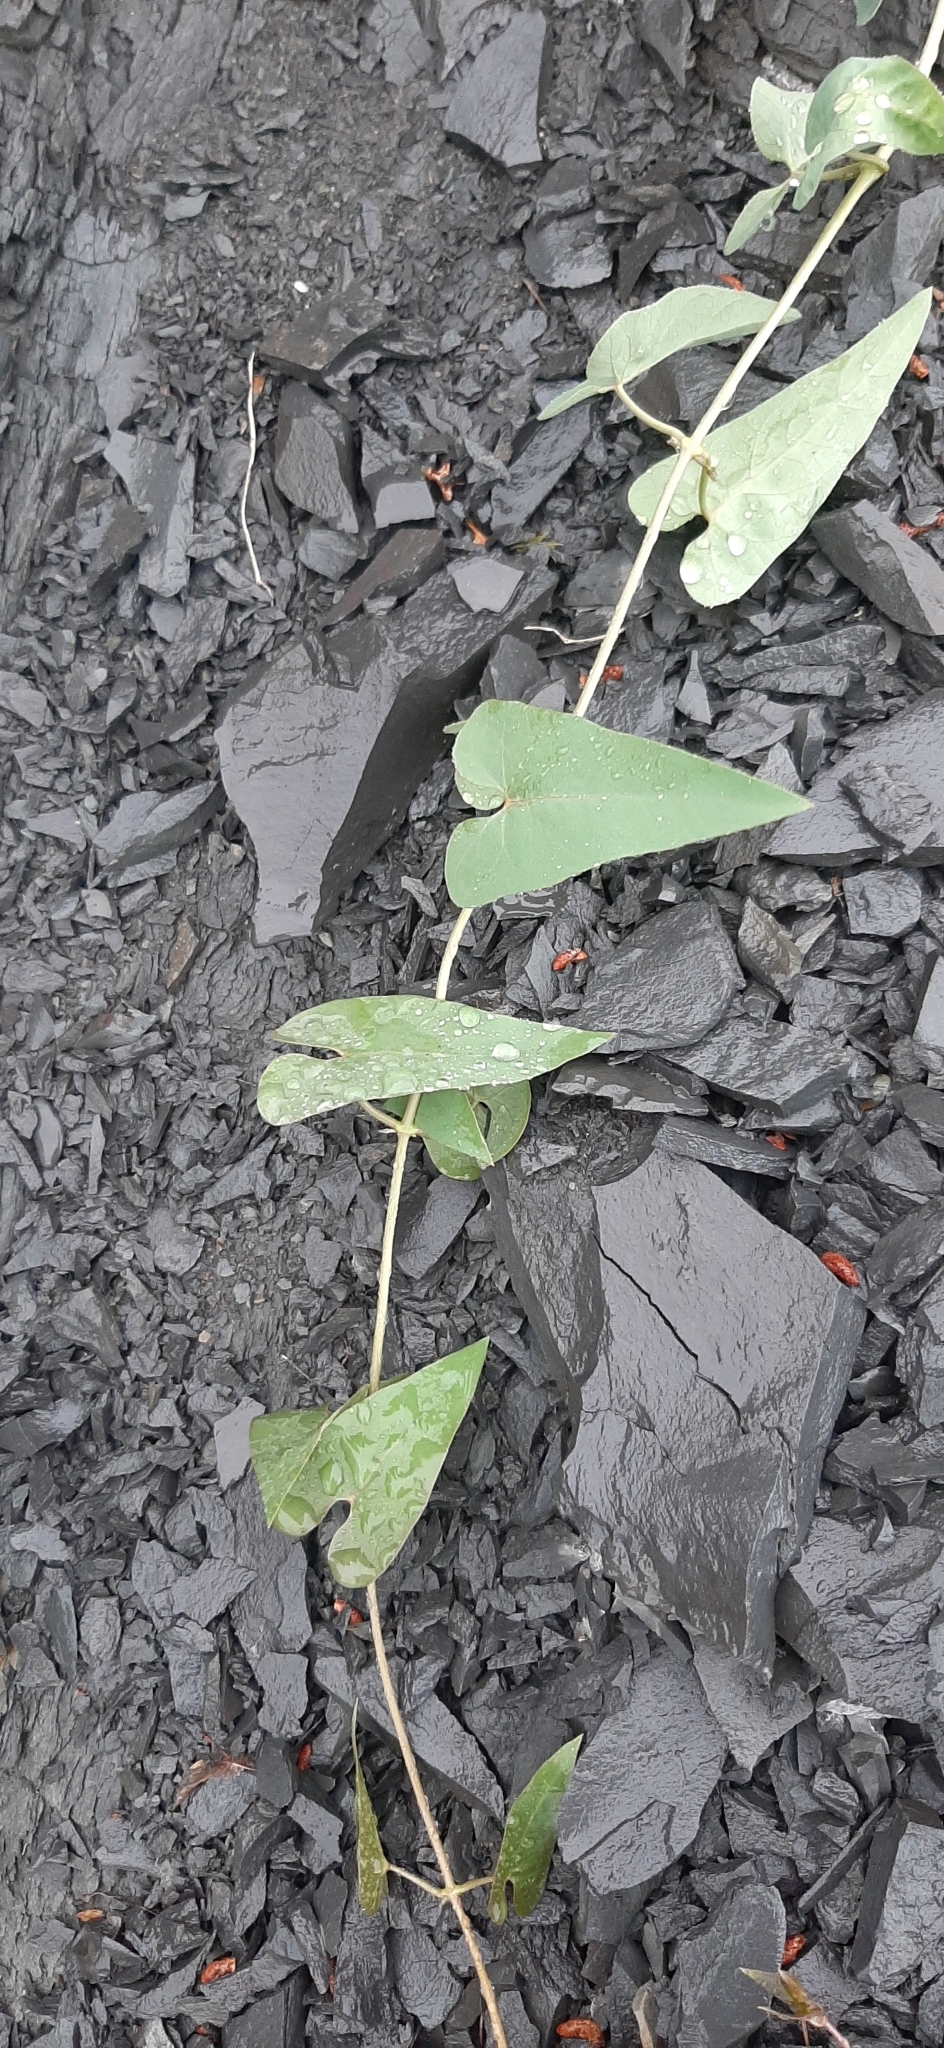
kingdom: Plantae
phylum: Tracheophyta
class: Magnoliopsida
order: Gentianales
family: Apocynaceae
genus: Cynanchum
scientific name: Cynanchum acutum
